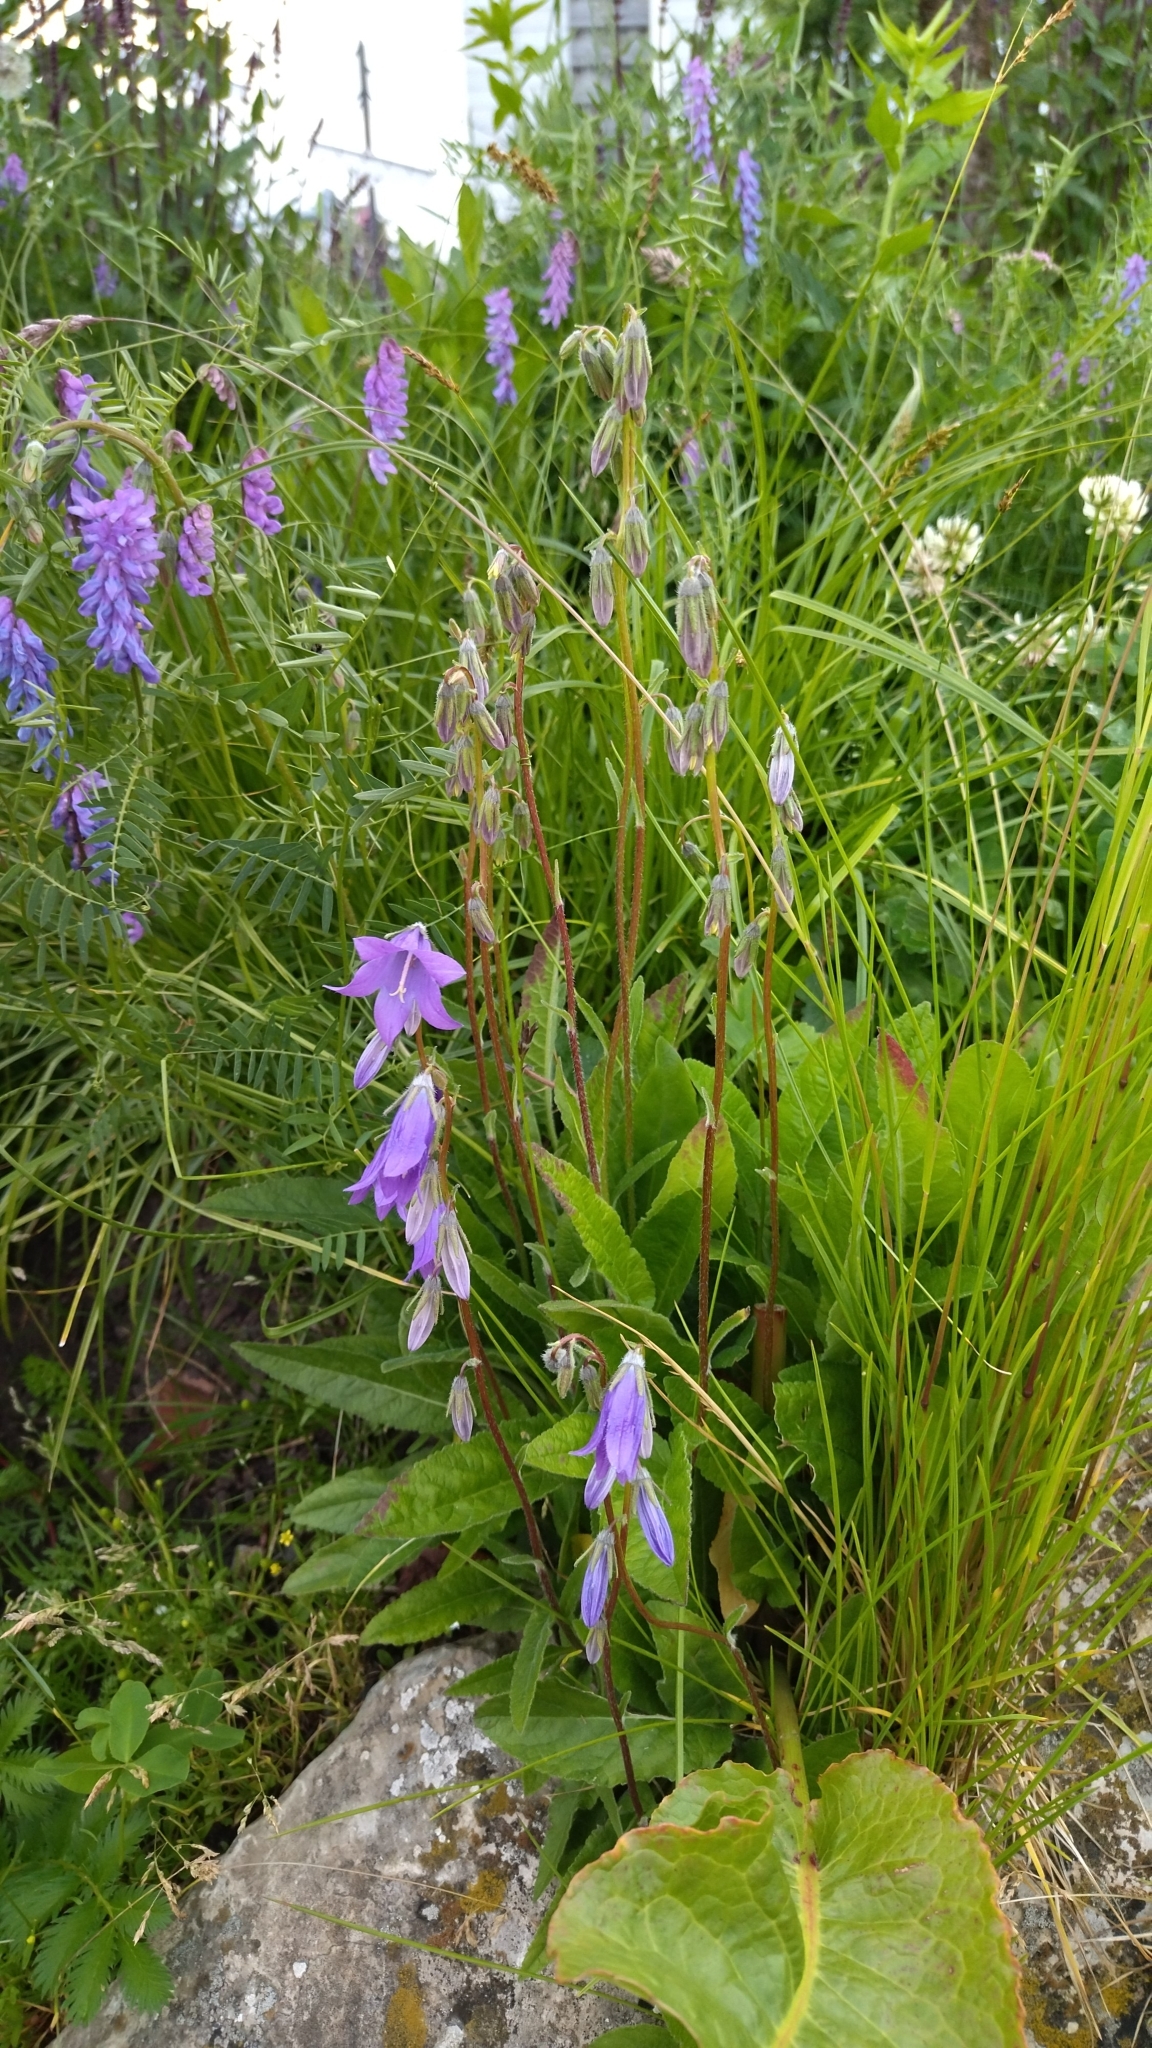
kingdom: Plantae
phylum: Tracheophyta
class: Magnoliopsida
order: Asterales
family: Campanulaceae
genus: Campanula
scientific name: Campanula collina
